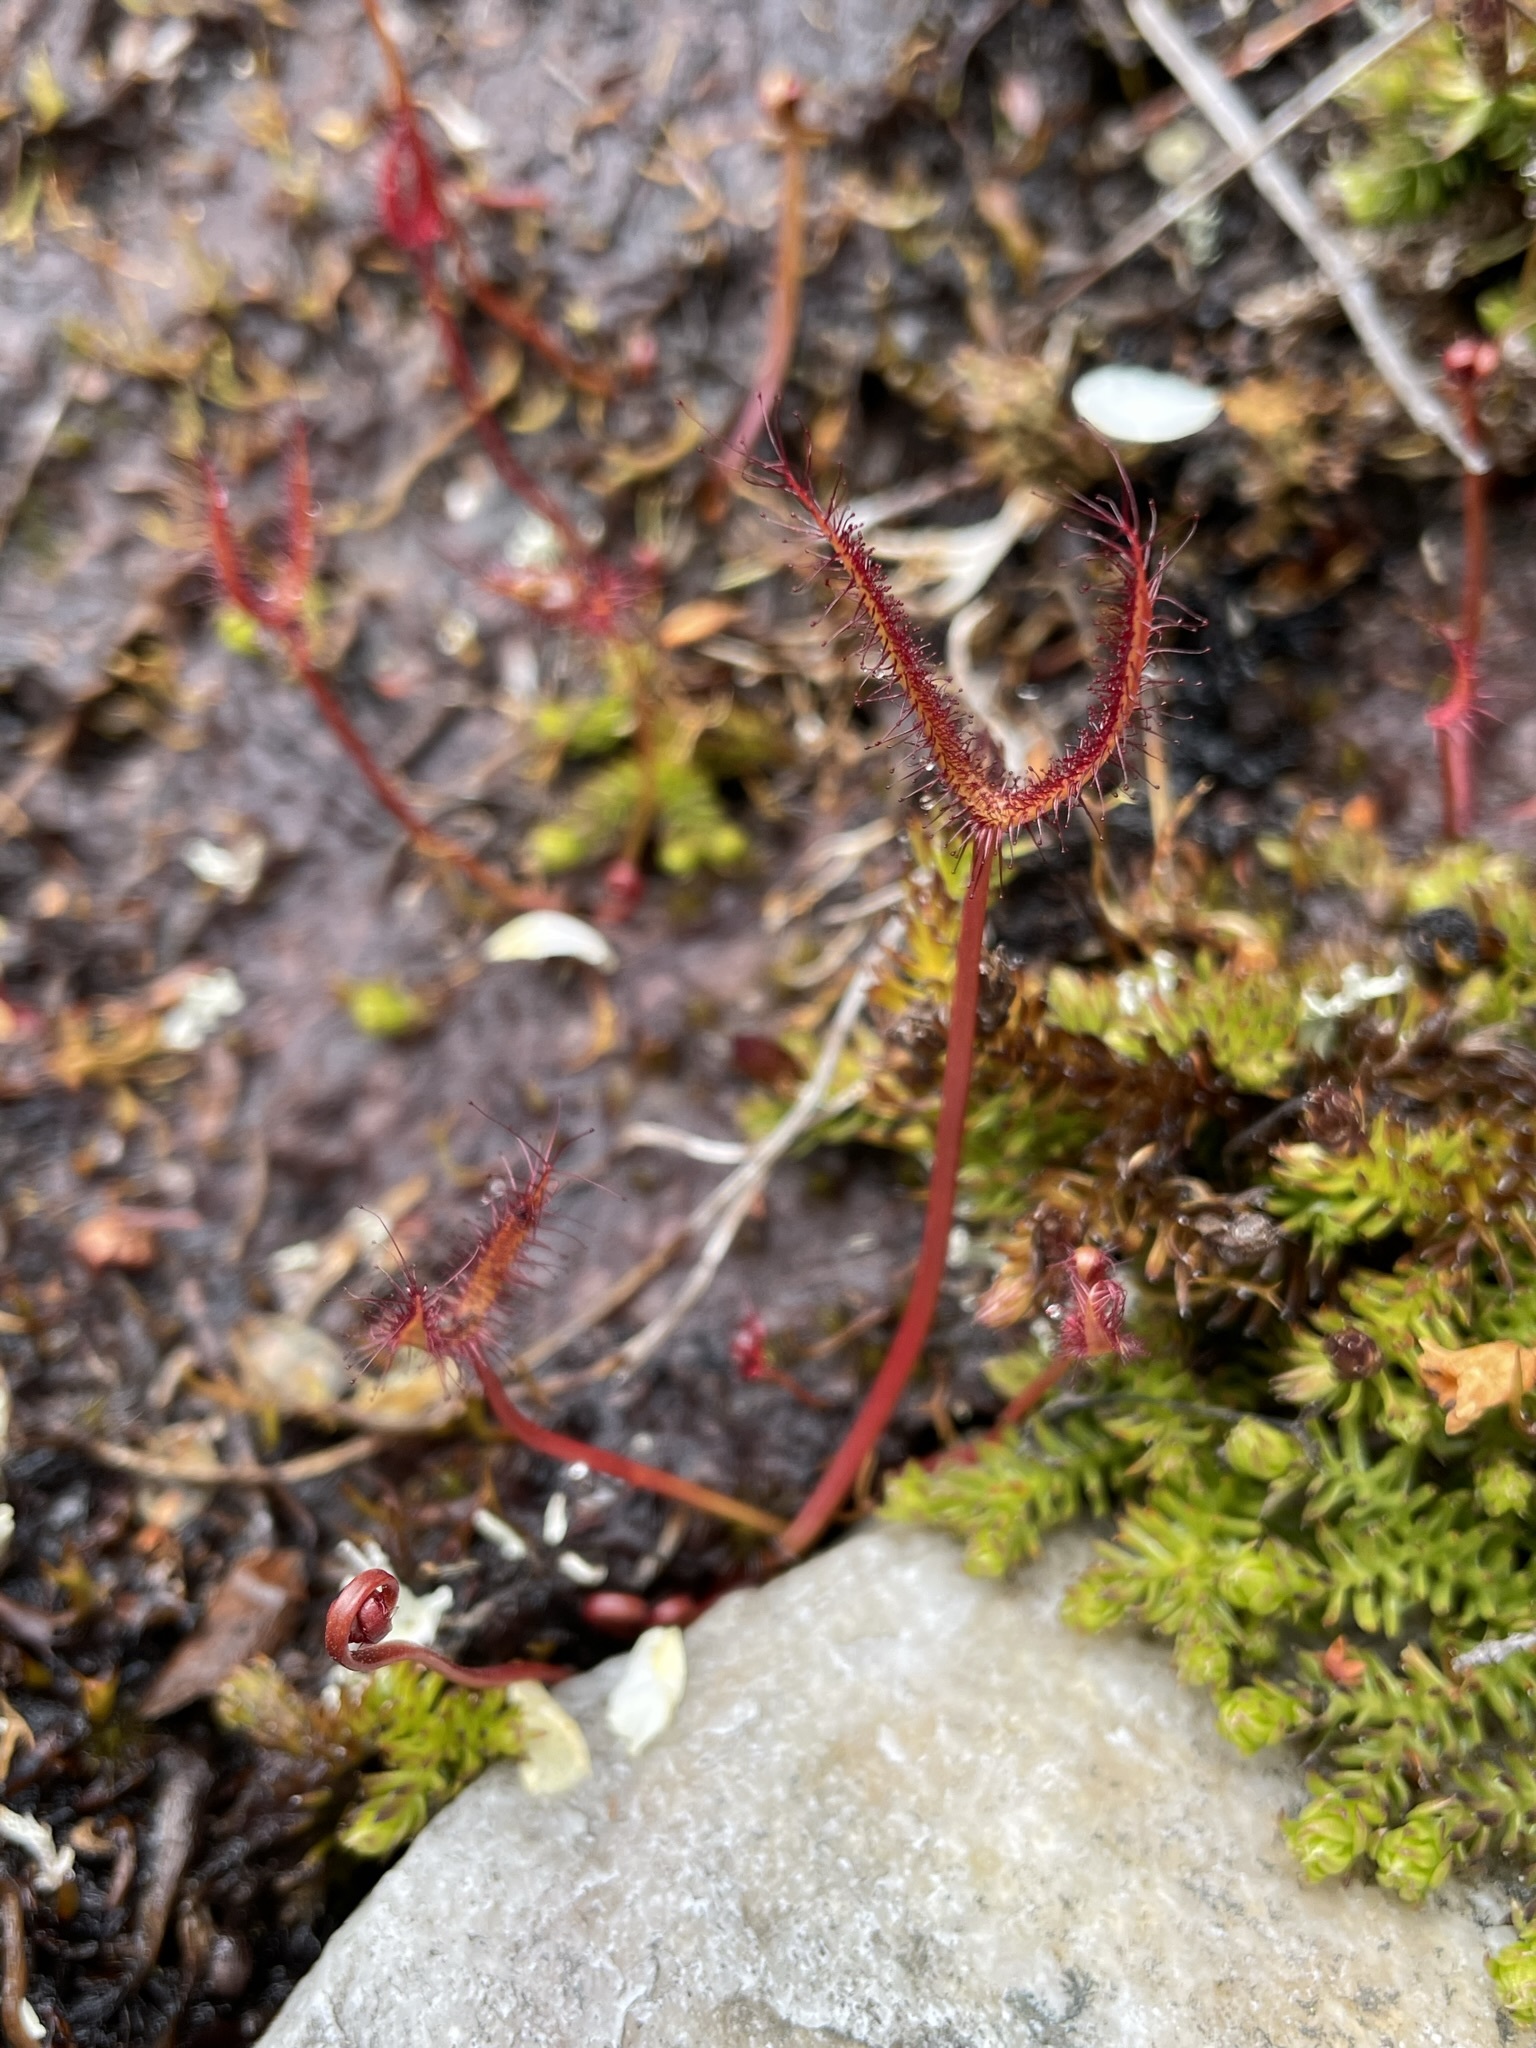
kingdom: Plantae
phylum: Tracheophyta
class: Magnoliopsida
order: Caryophyllales
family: Droseraceae
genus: Drosera
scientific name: Drosera binata
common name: Forked sundew
